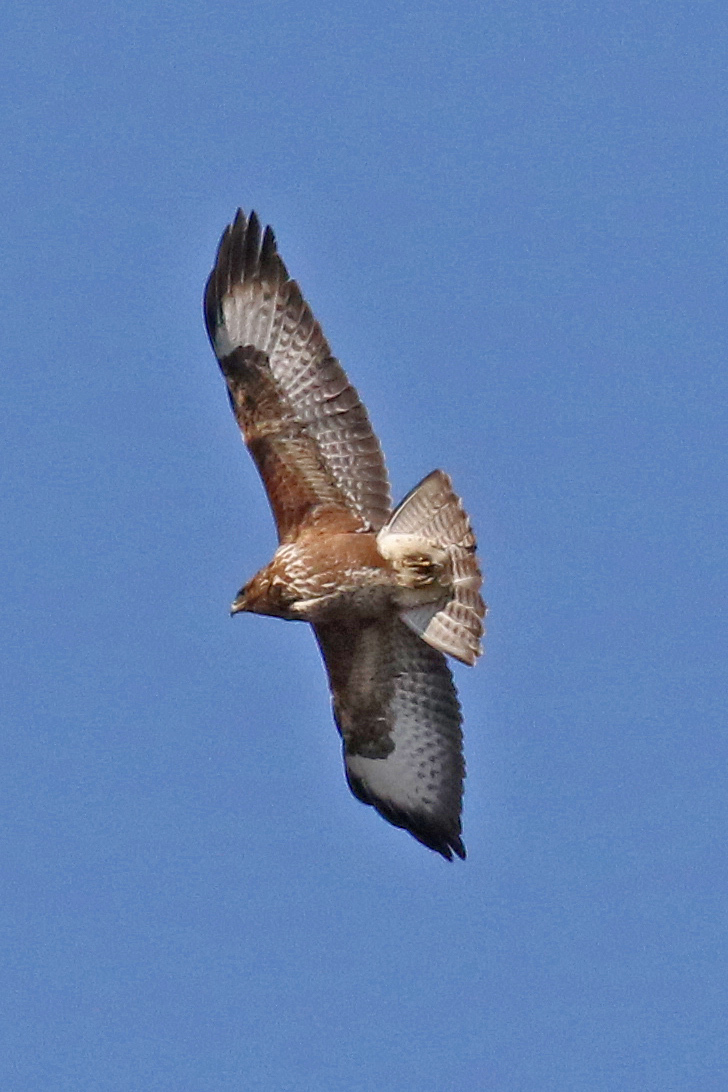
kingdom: Animalia
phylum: Chordata
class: Aves
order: Accipitriformes
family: Accipitridae
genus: Buteo
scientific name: Buteo buteo
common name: Common buzzard
